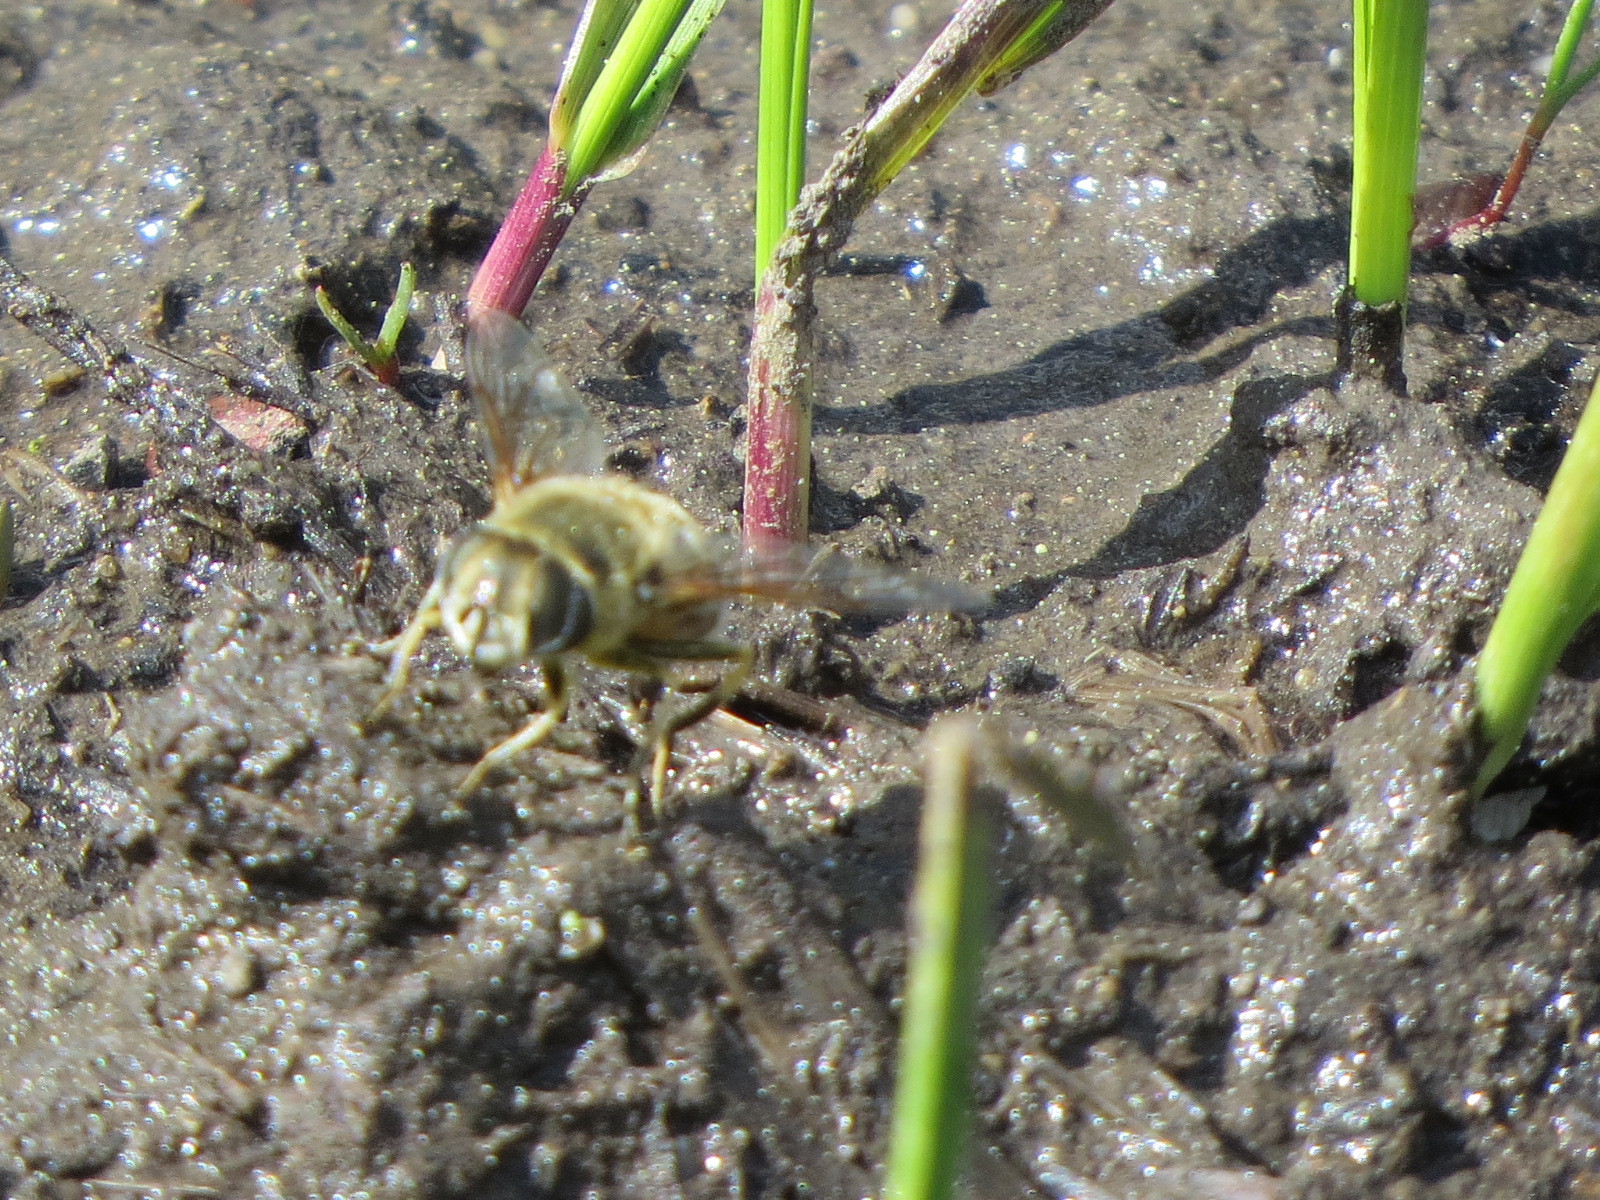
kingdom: Animalia
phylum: Arthropoda
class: Insecta
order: Diptera
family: Syrphidae
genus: Eoseristalis
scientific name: Eoseristalis
